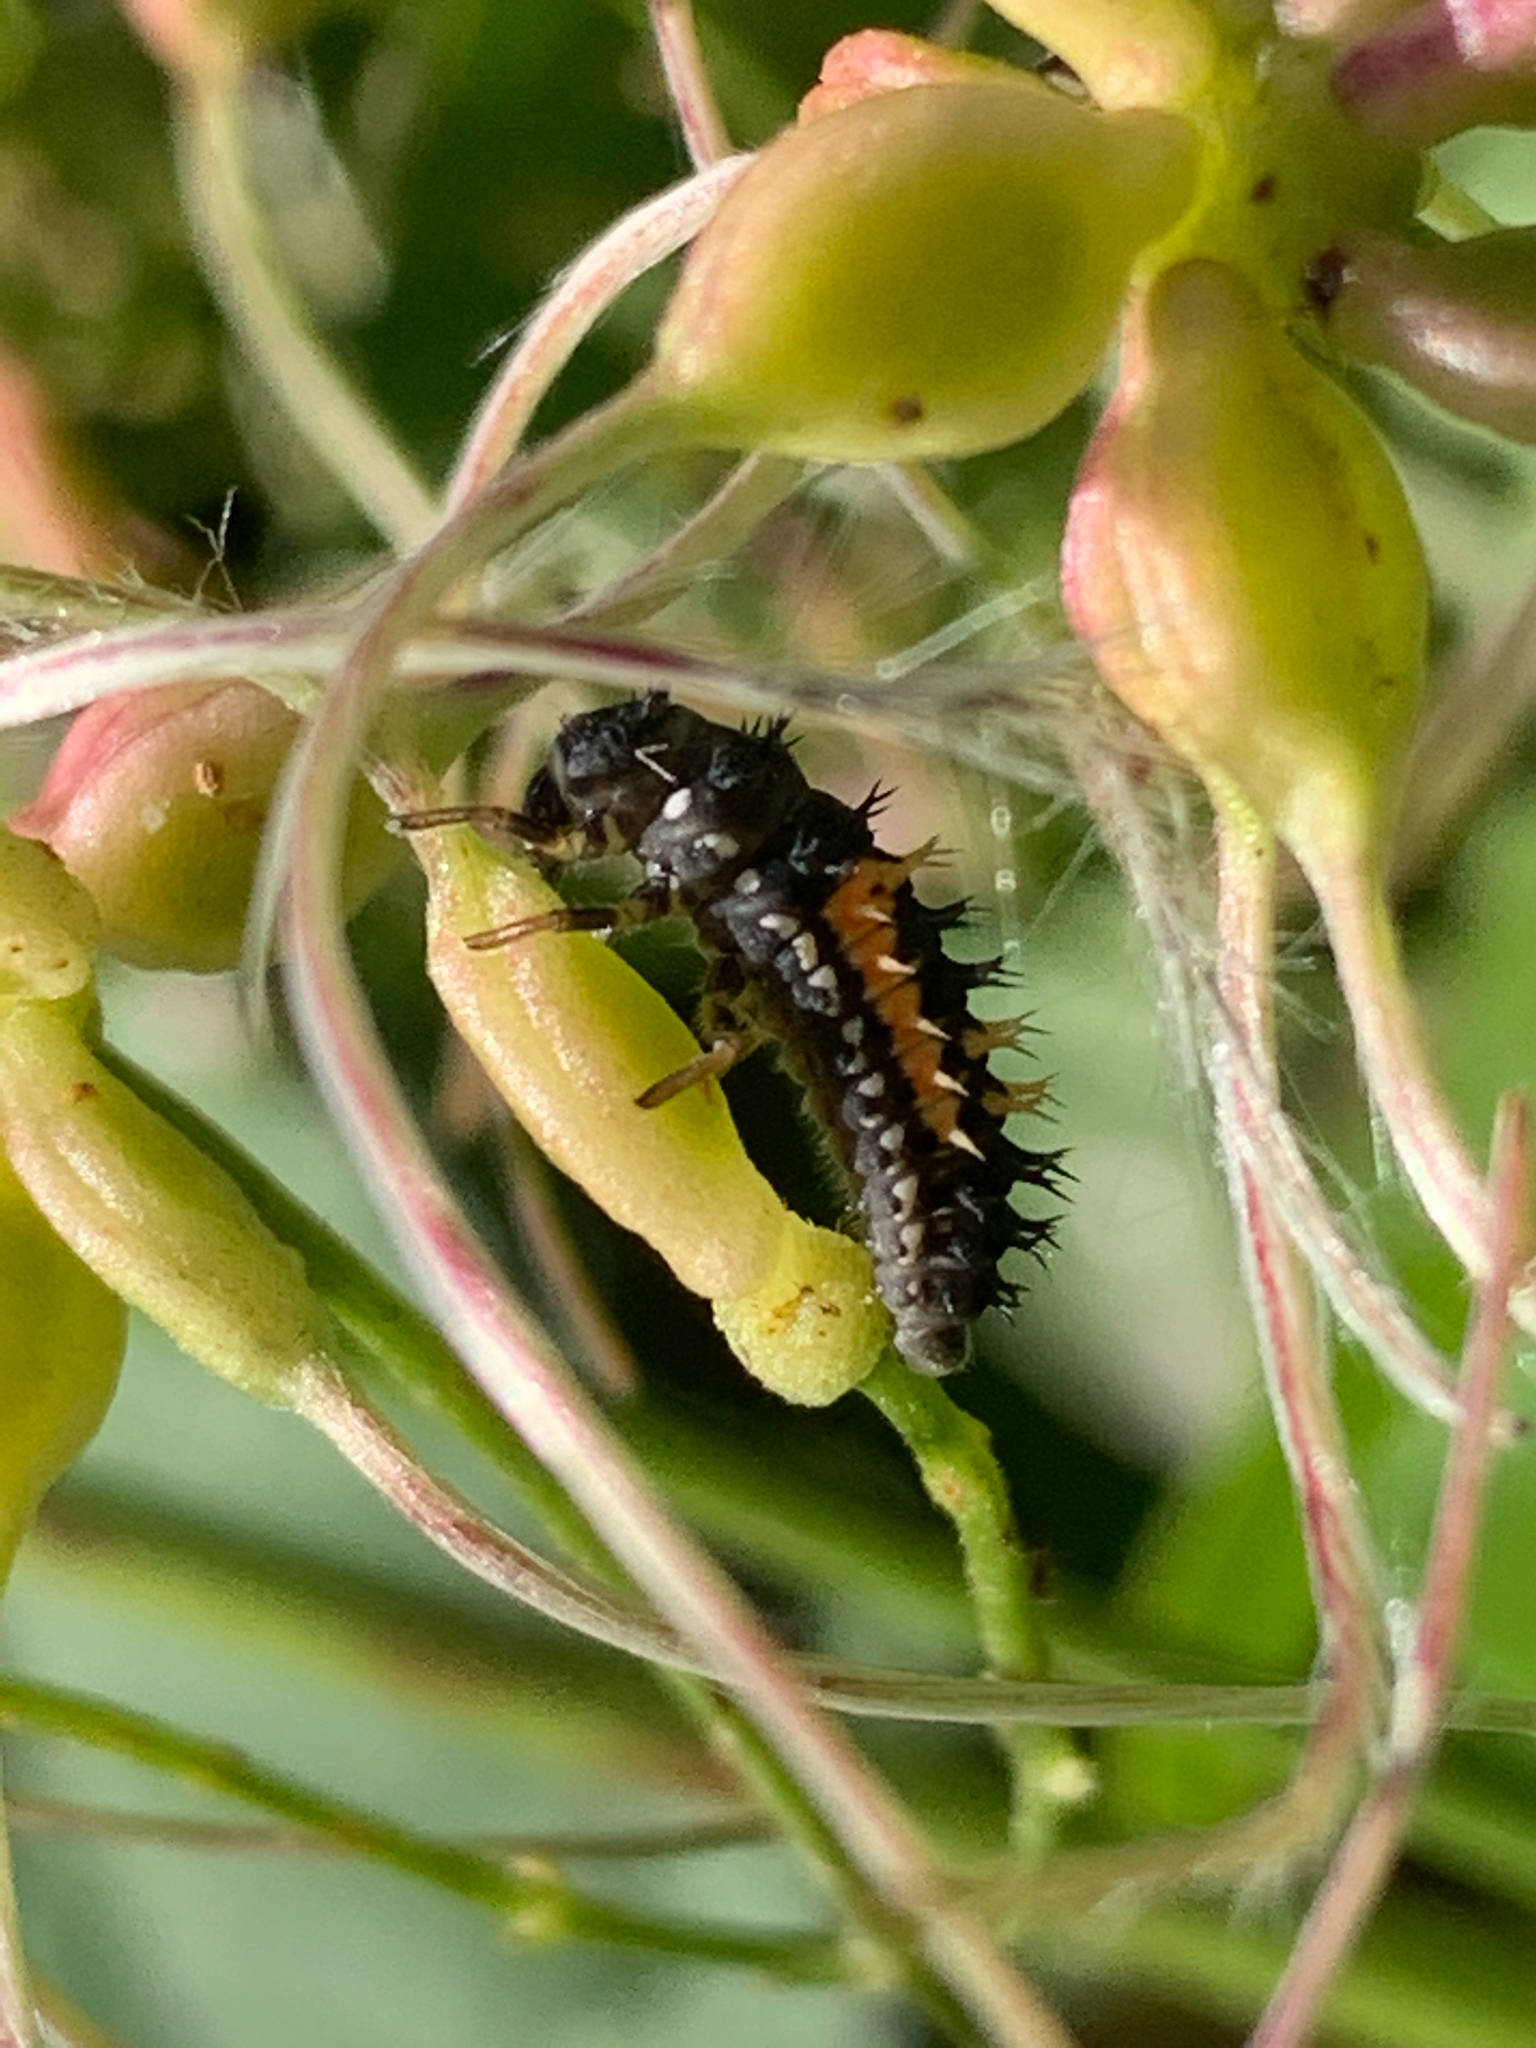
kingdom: Animalia
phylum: Arthropoda
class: Insecta
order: Coleoptera
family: Coccinellidae
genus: Harmonia
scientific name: Harmonia axyridis
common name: Harlequin ladybird
